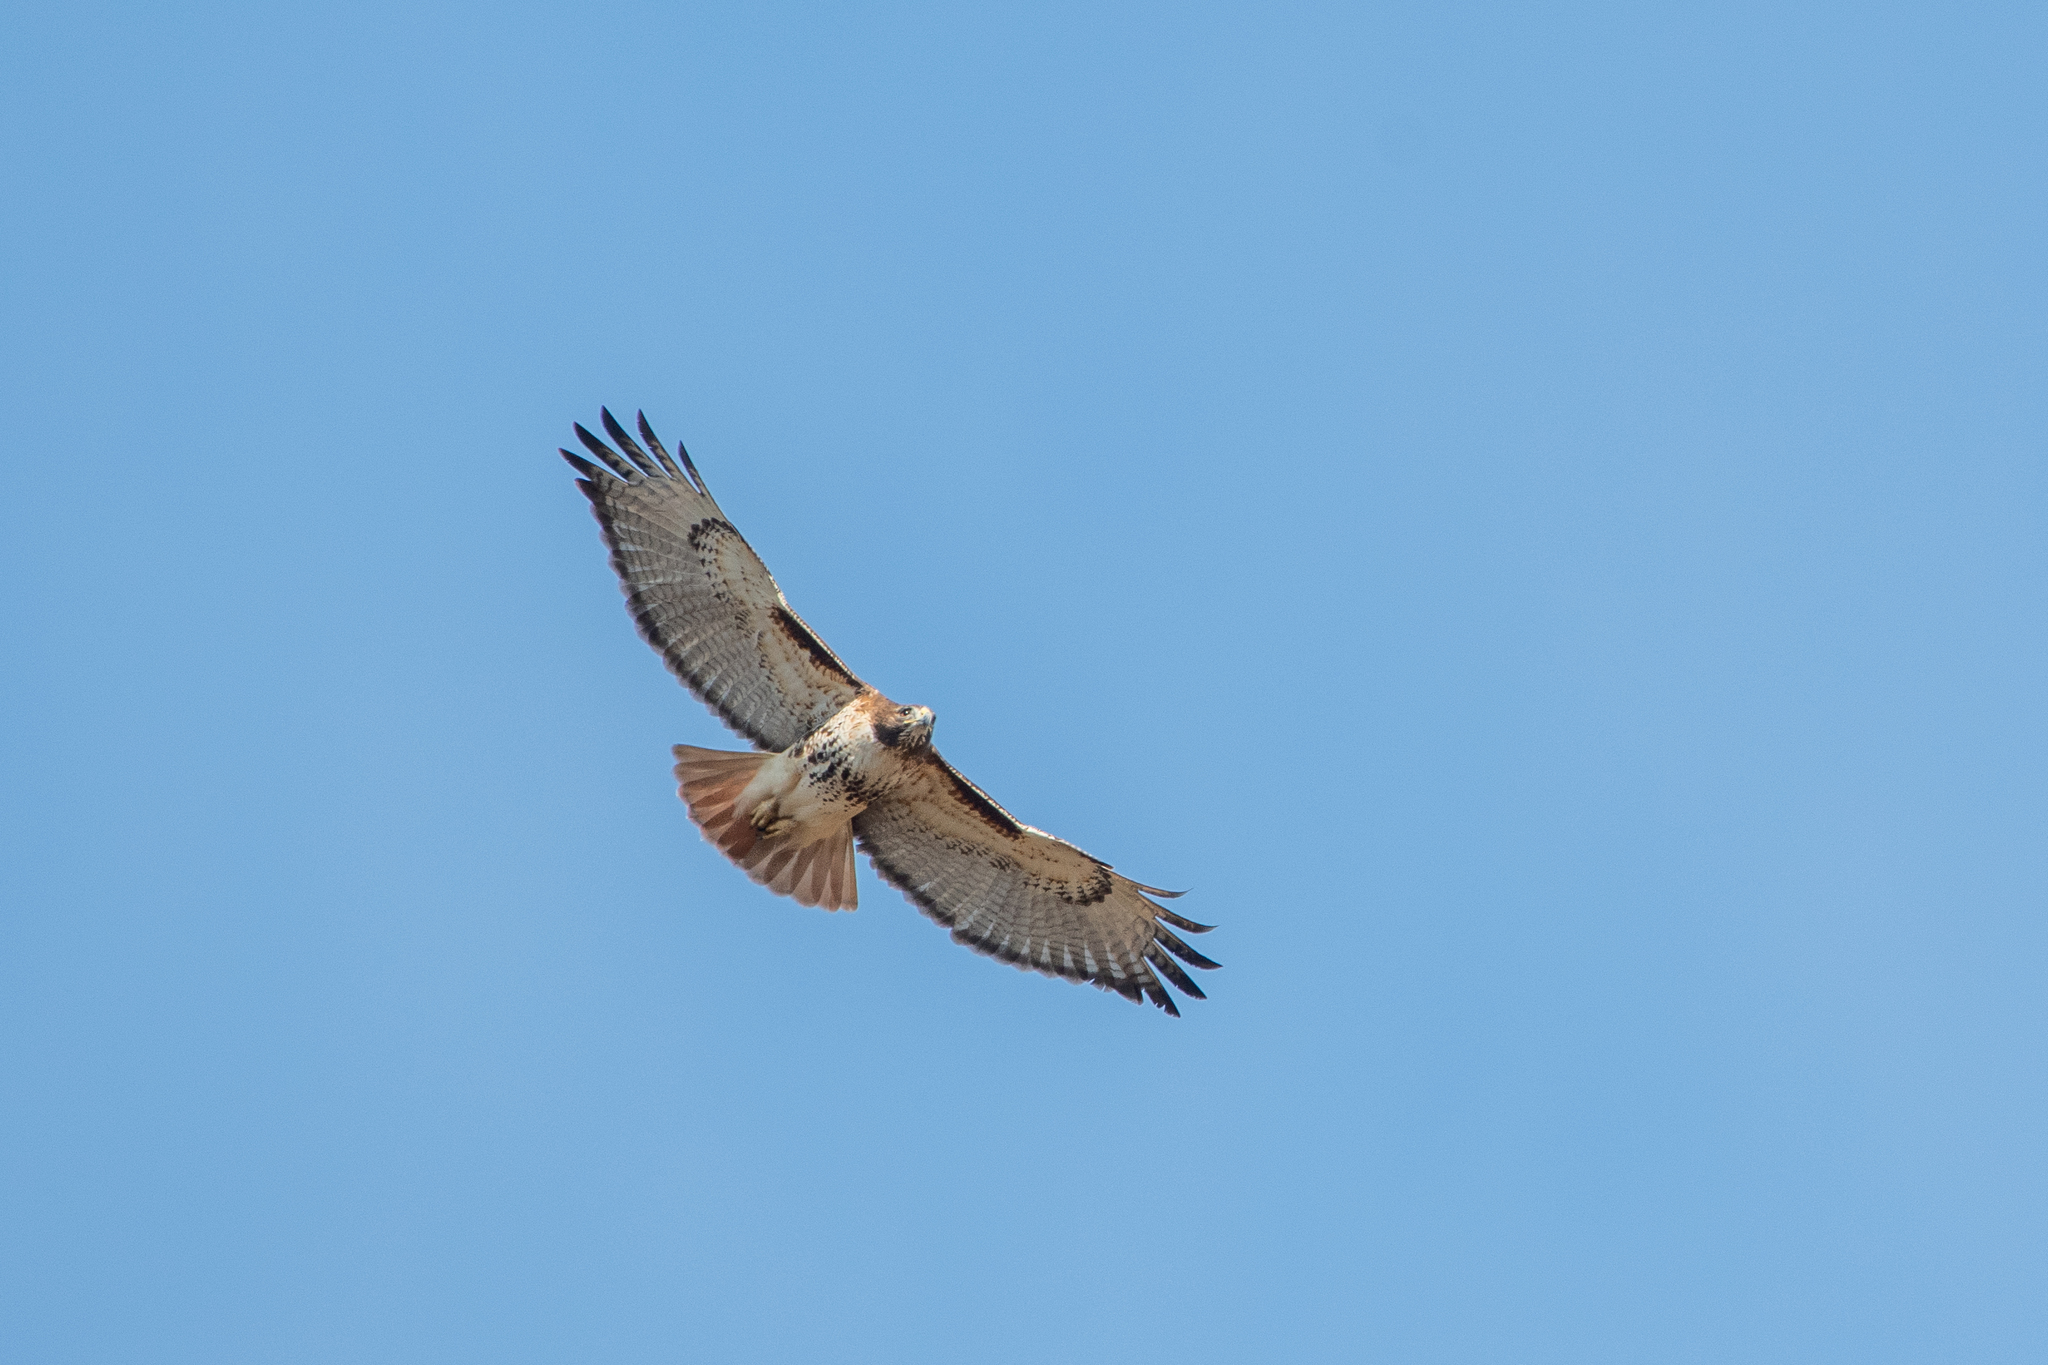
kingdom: Animalia
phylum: Chordata
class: Aves
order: Accipitriformes
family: Accipitridae
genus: Buteo
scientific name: Buteo jamaicensis
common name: Red-tailed hawk
